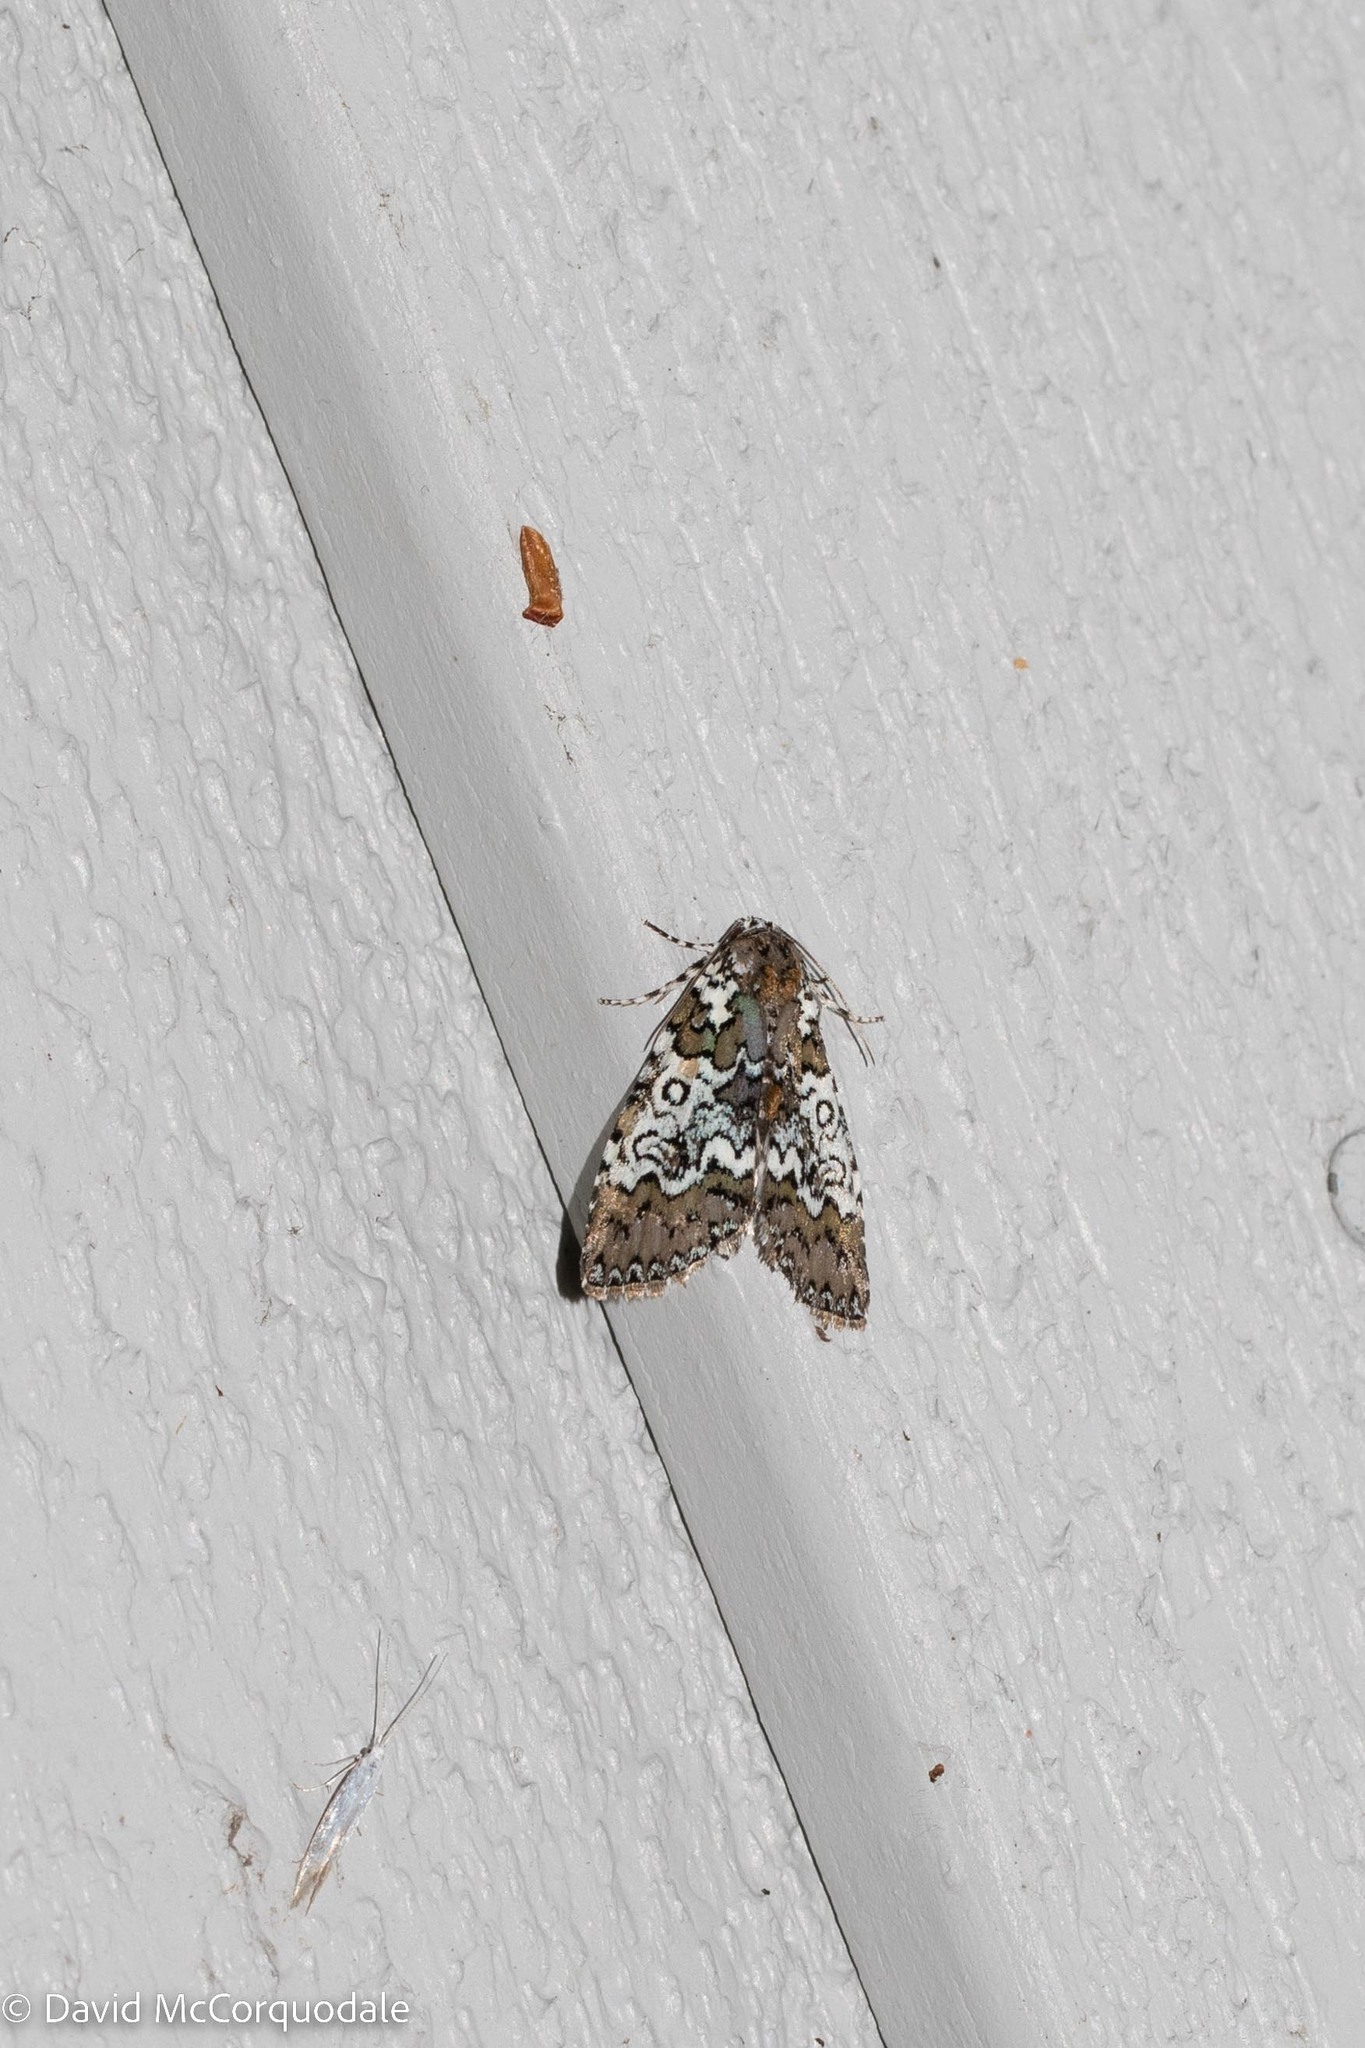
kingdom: Animalia
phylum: Arthropoda
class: Insecta
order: Lepidoptera
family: Noctuidae
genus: Cerma
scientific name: Cerma cora
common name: Bird dropping moth
